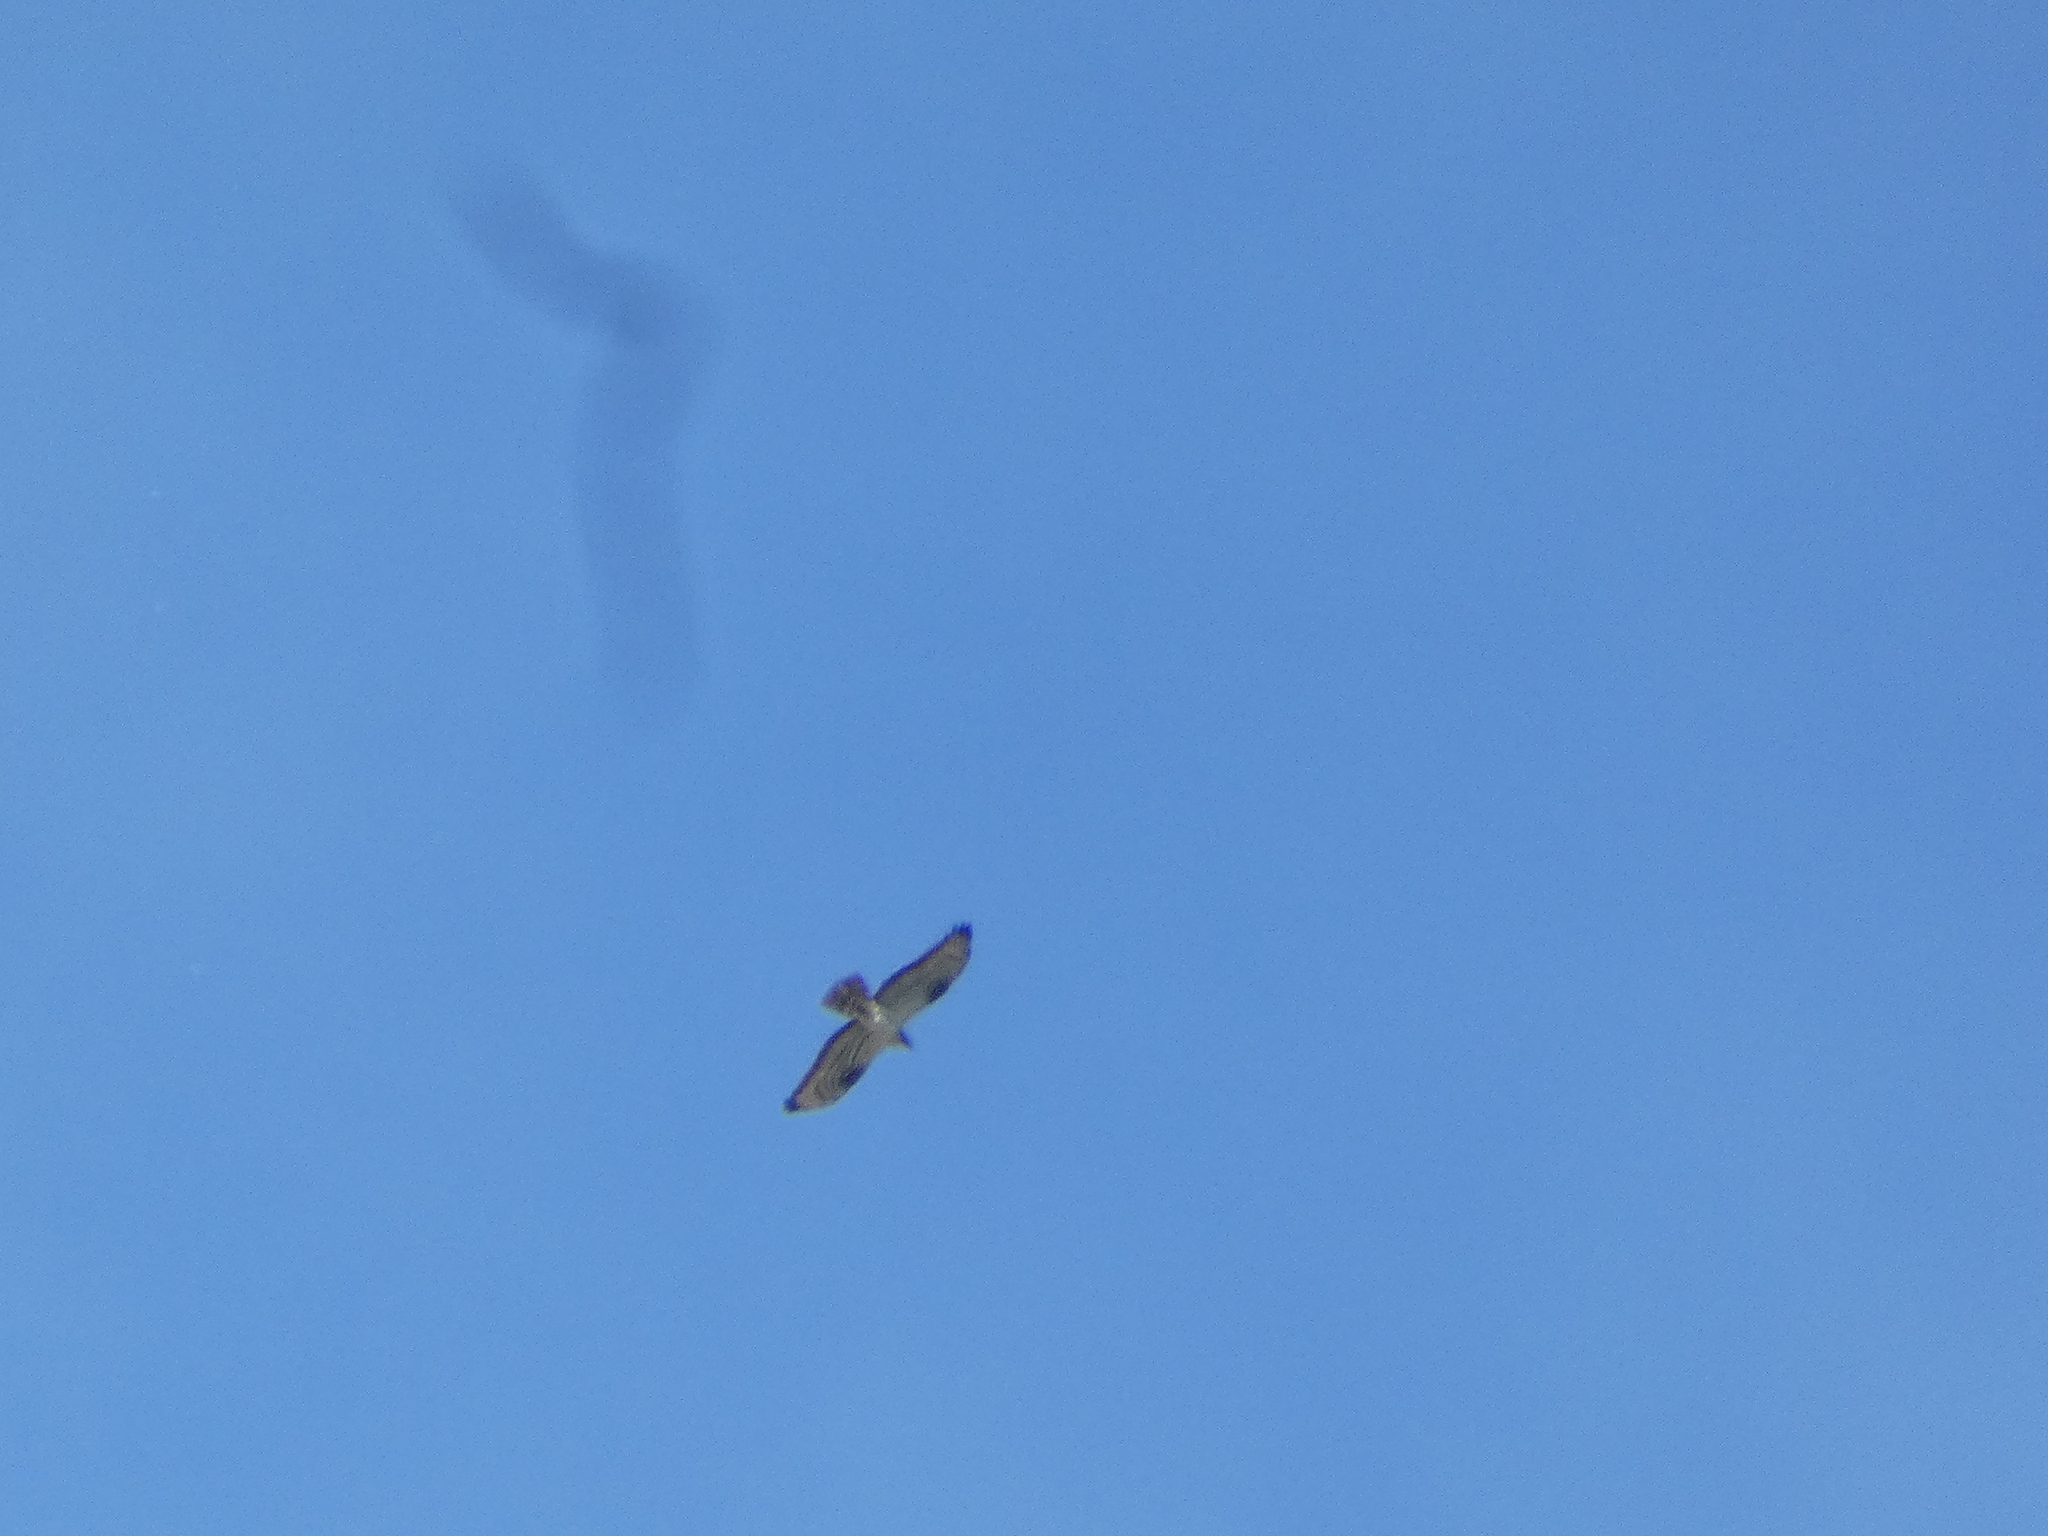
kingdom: Animalia
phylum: Chordata
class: Aves
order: Accipitriformes
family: Accipitridae
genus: Pernis
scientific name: Pernis apivorus
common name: European honey buzzard
